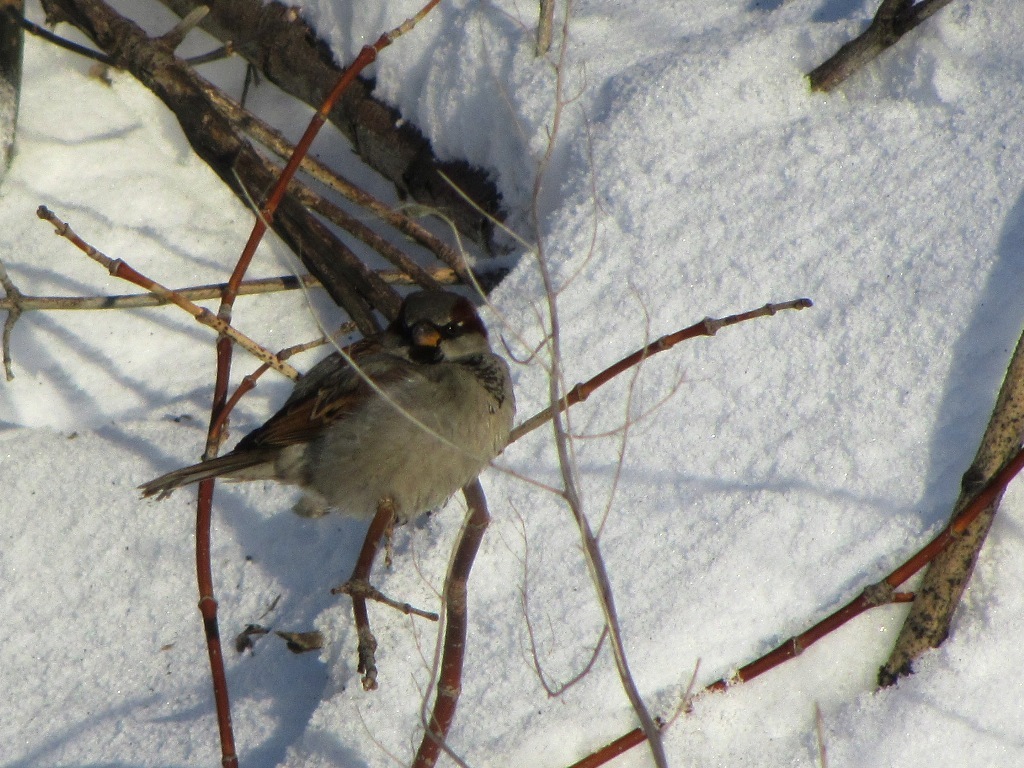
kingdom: Animalia
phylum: Chordata
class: Aves
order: Passeriformes
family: Passeridae
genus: Passer
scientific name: Passer domesticus
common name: House sparrow
